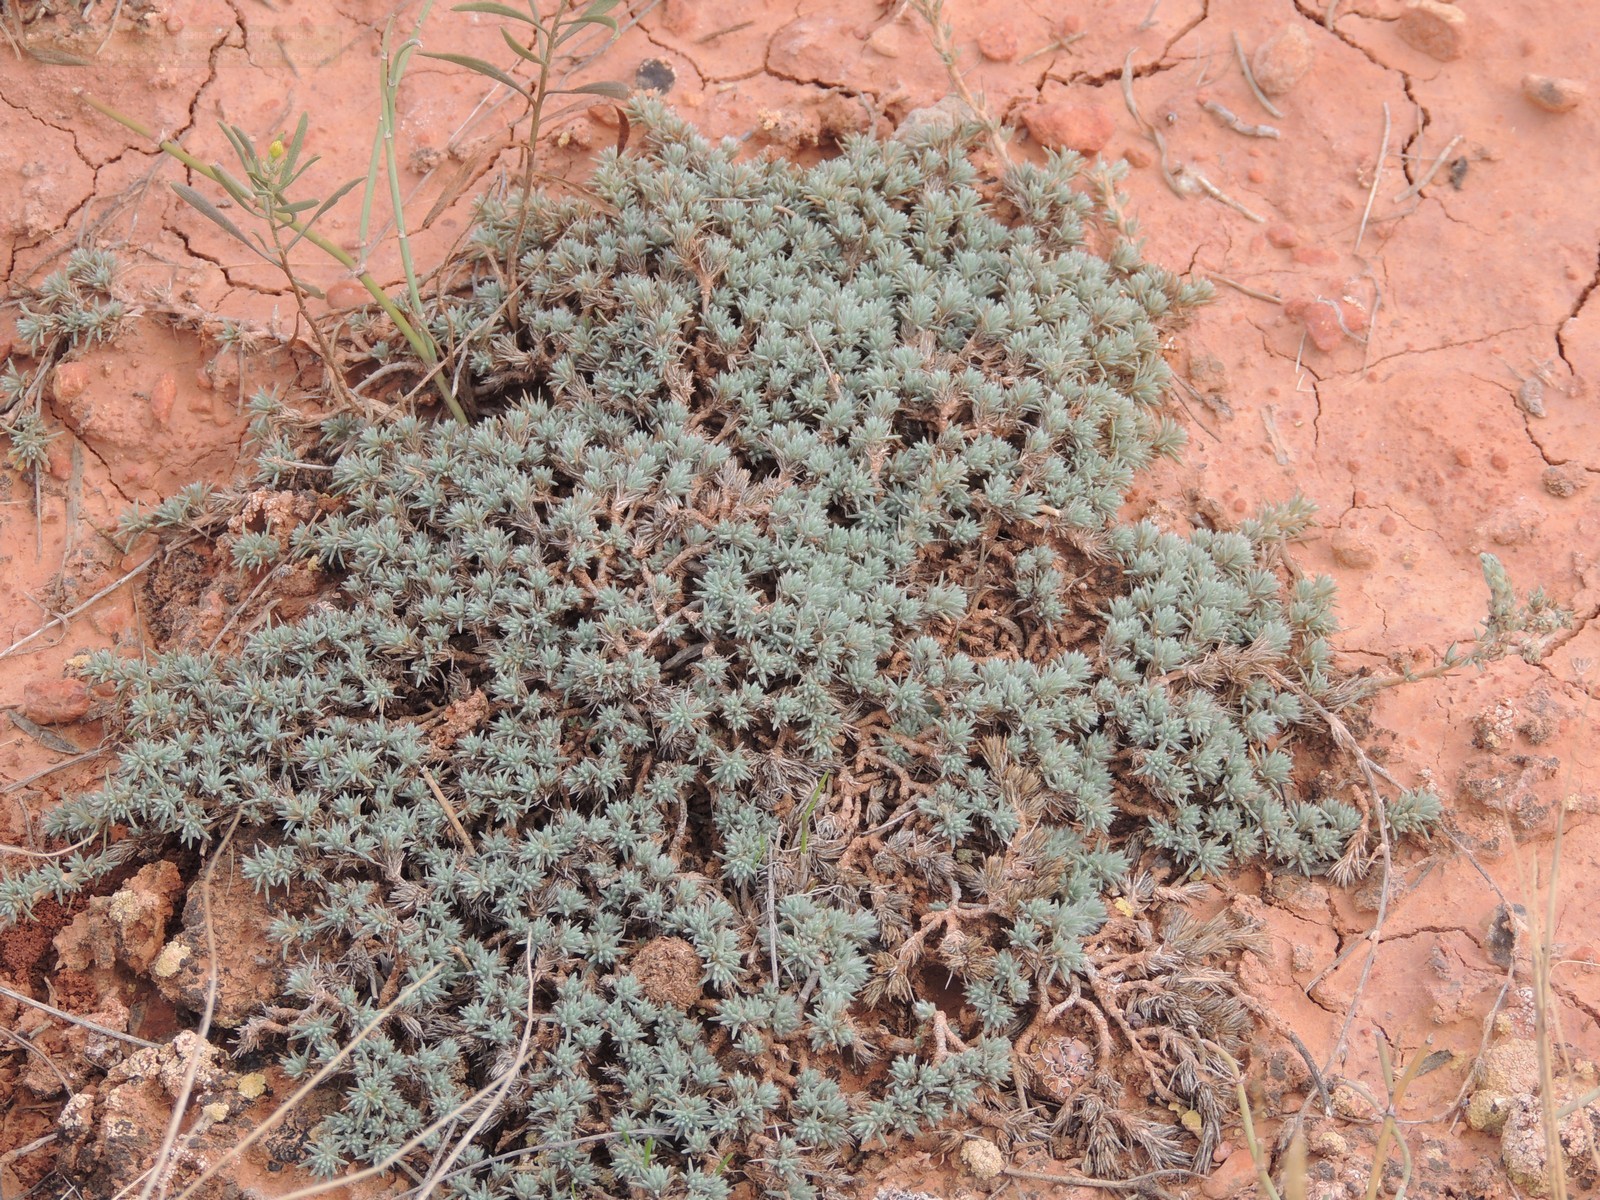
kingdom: Plantae
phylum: Tracheophyta
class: Magnoliopsida
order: Caryophyllales
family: Amaranthaceae
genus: Camphorosma
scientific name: Camphorosma monspeliaca
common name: Camphorfume
